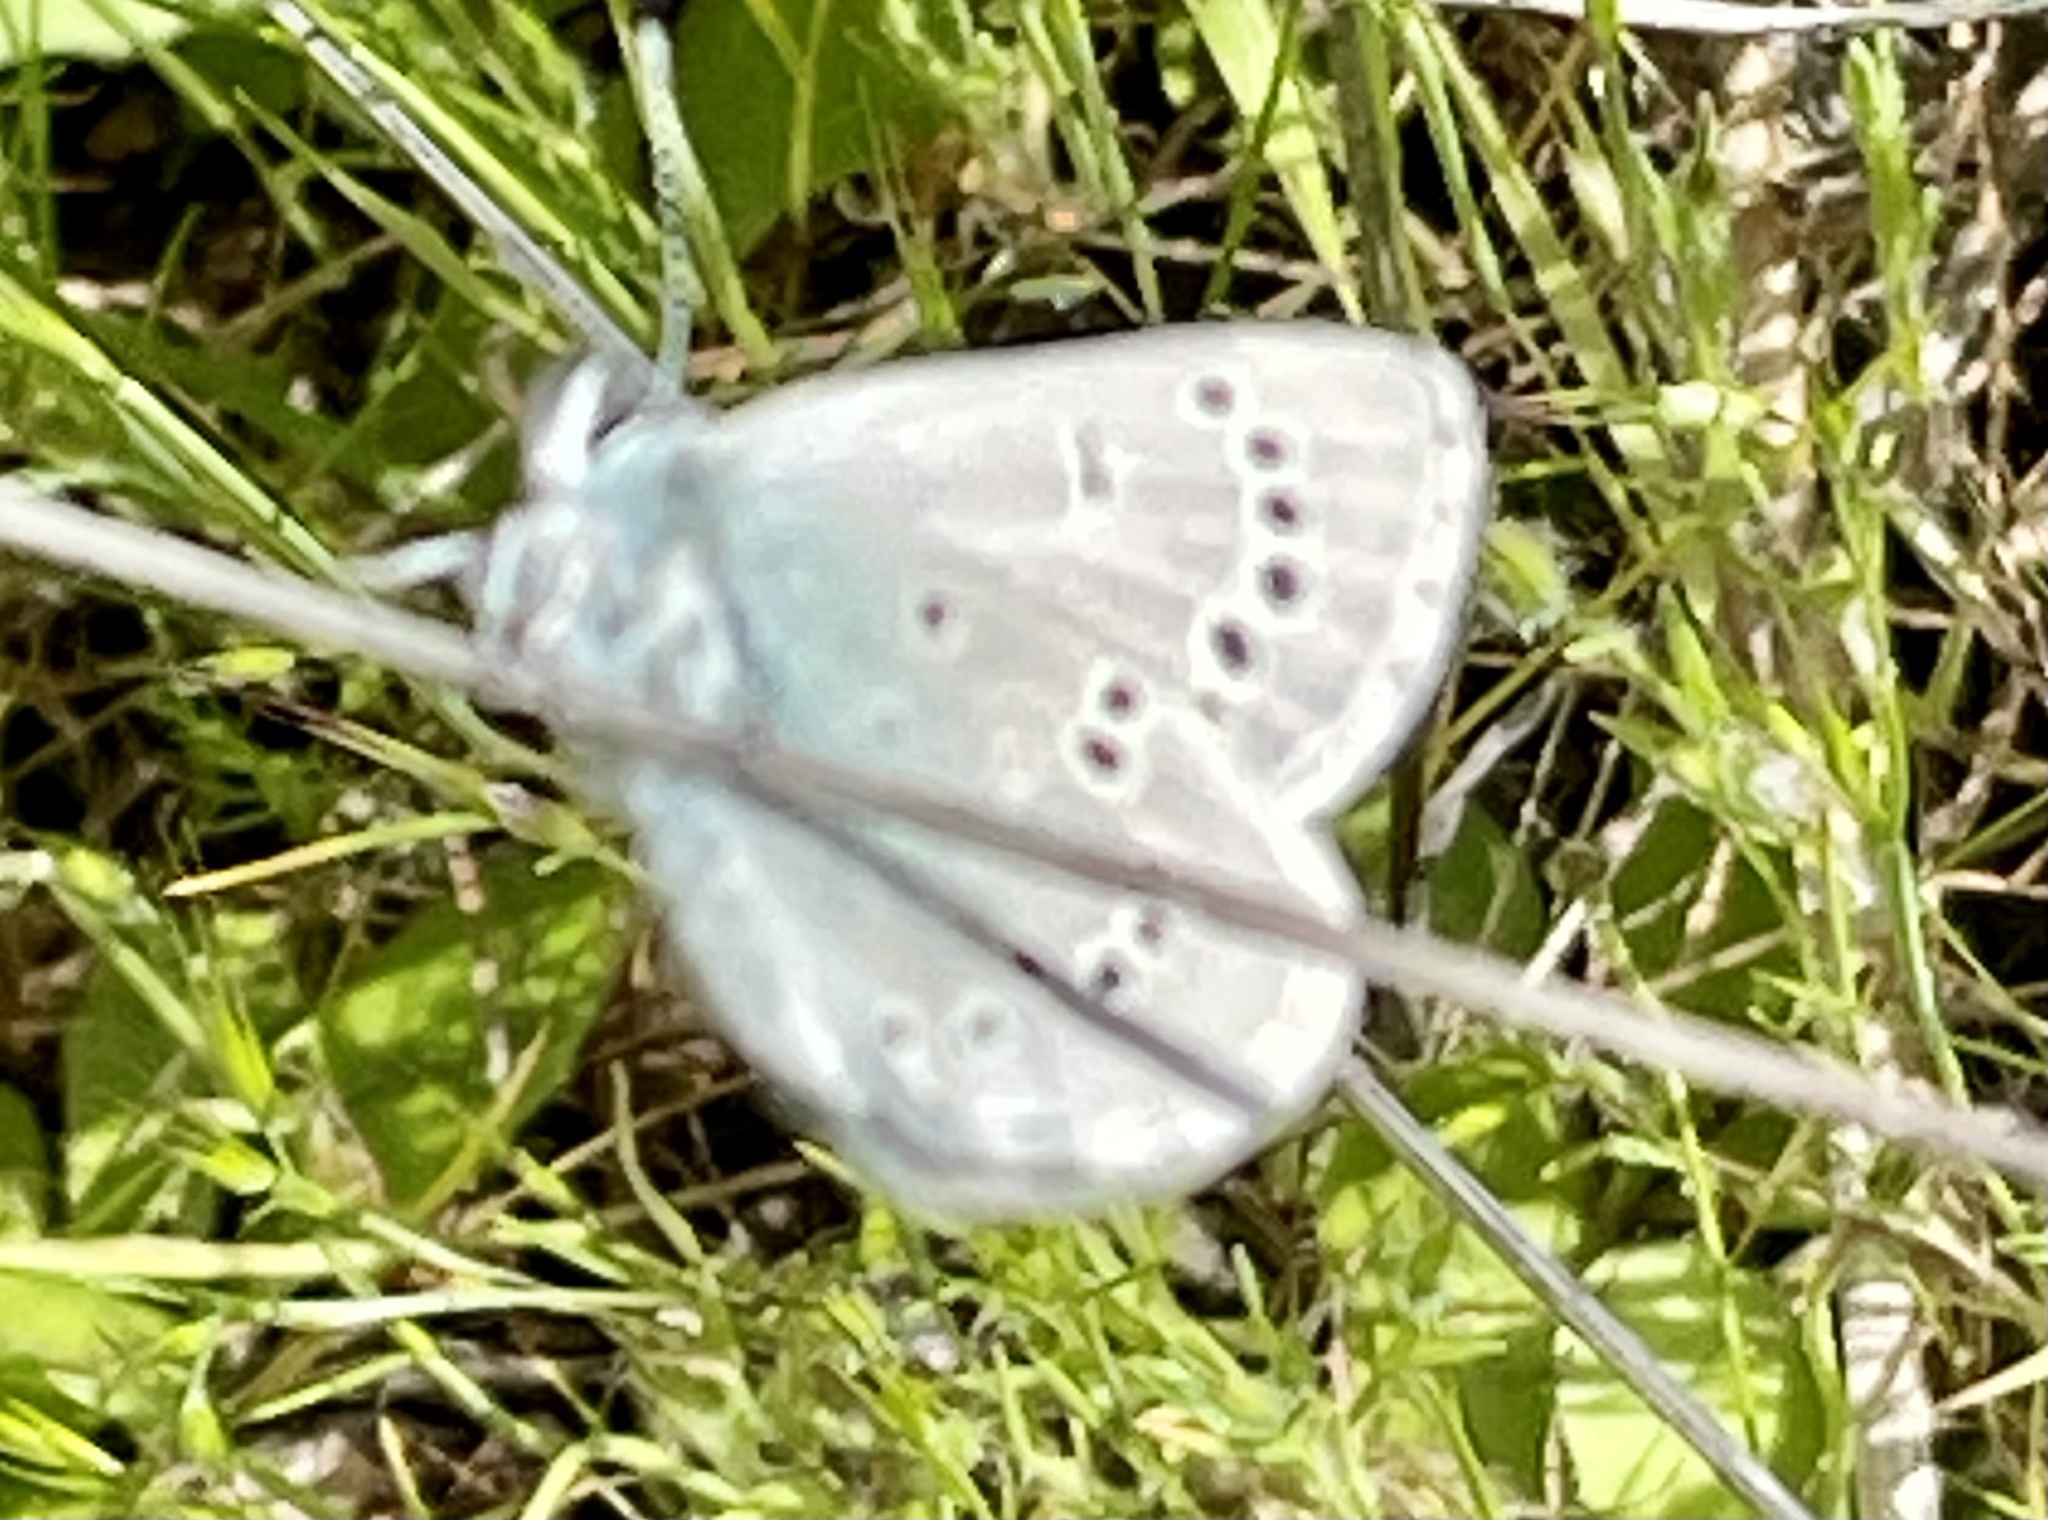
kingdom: Animalia
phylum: Arthropoda
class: Insecta
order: Lepidoptera
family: Lycaenidae
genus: Glaucopsyche
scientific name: Glaucopsyche lygdamus
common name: Silvery blue
